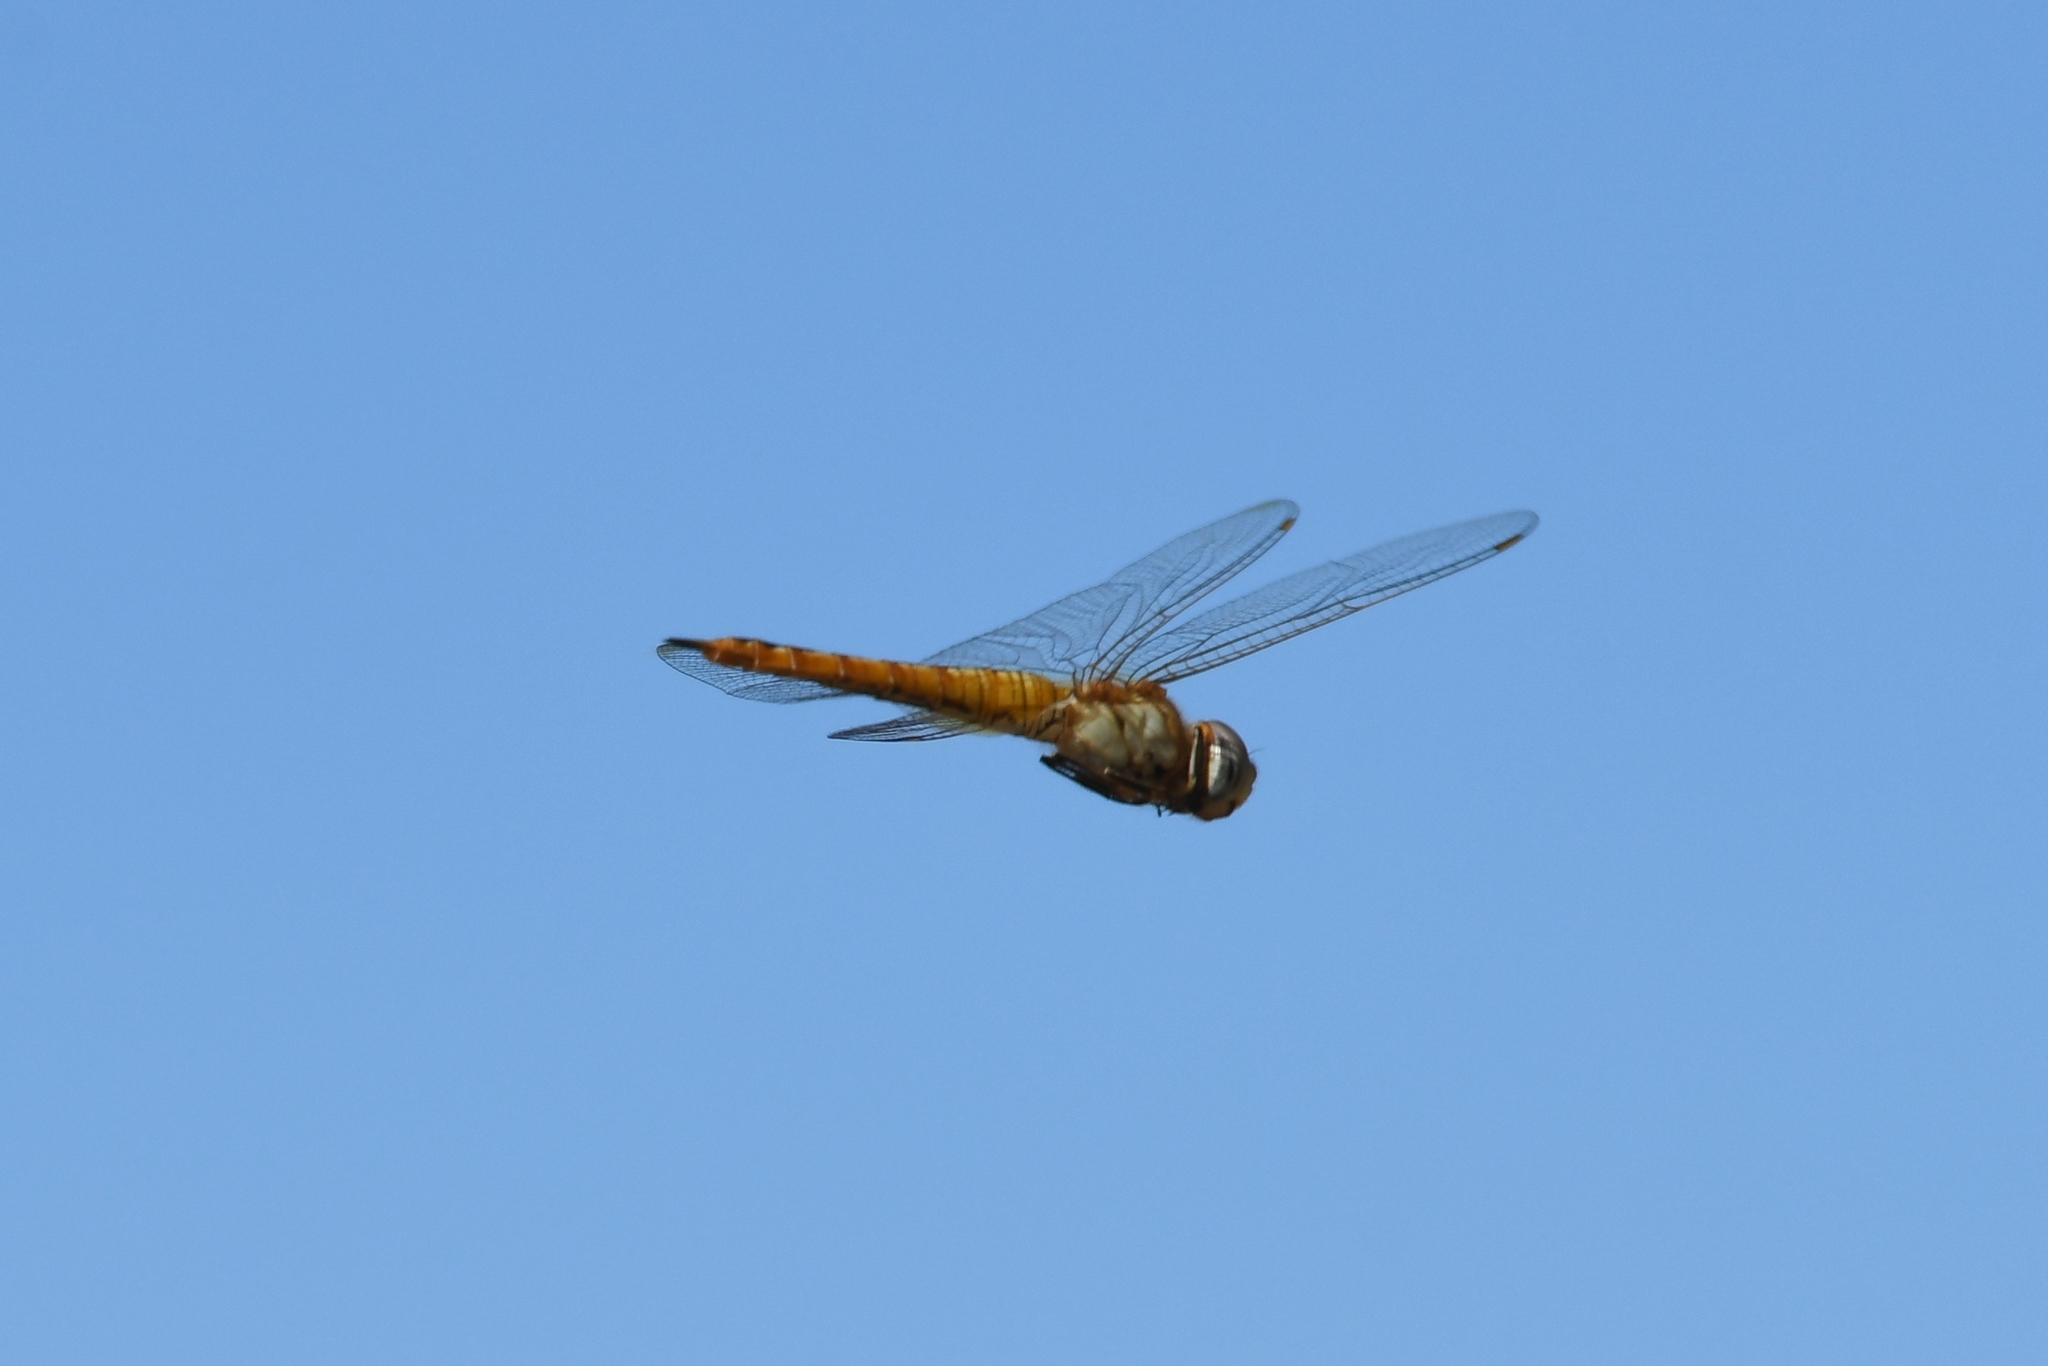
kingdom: Animalia
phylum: Arthropoda
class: Insecta
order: Odonata
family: Libellulidae
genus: Pantala
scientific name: Pantala flavescens
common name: Wandering glider
